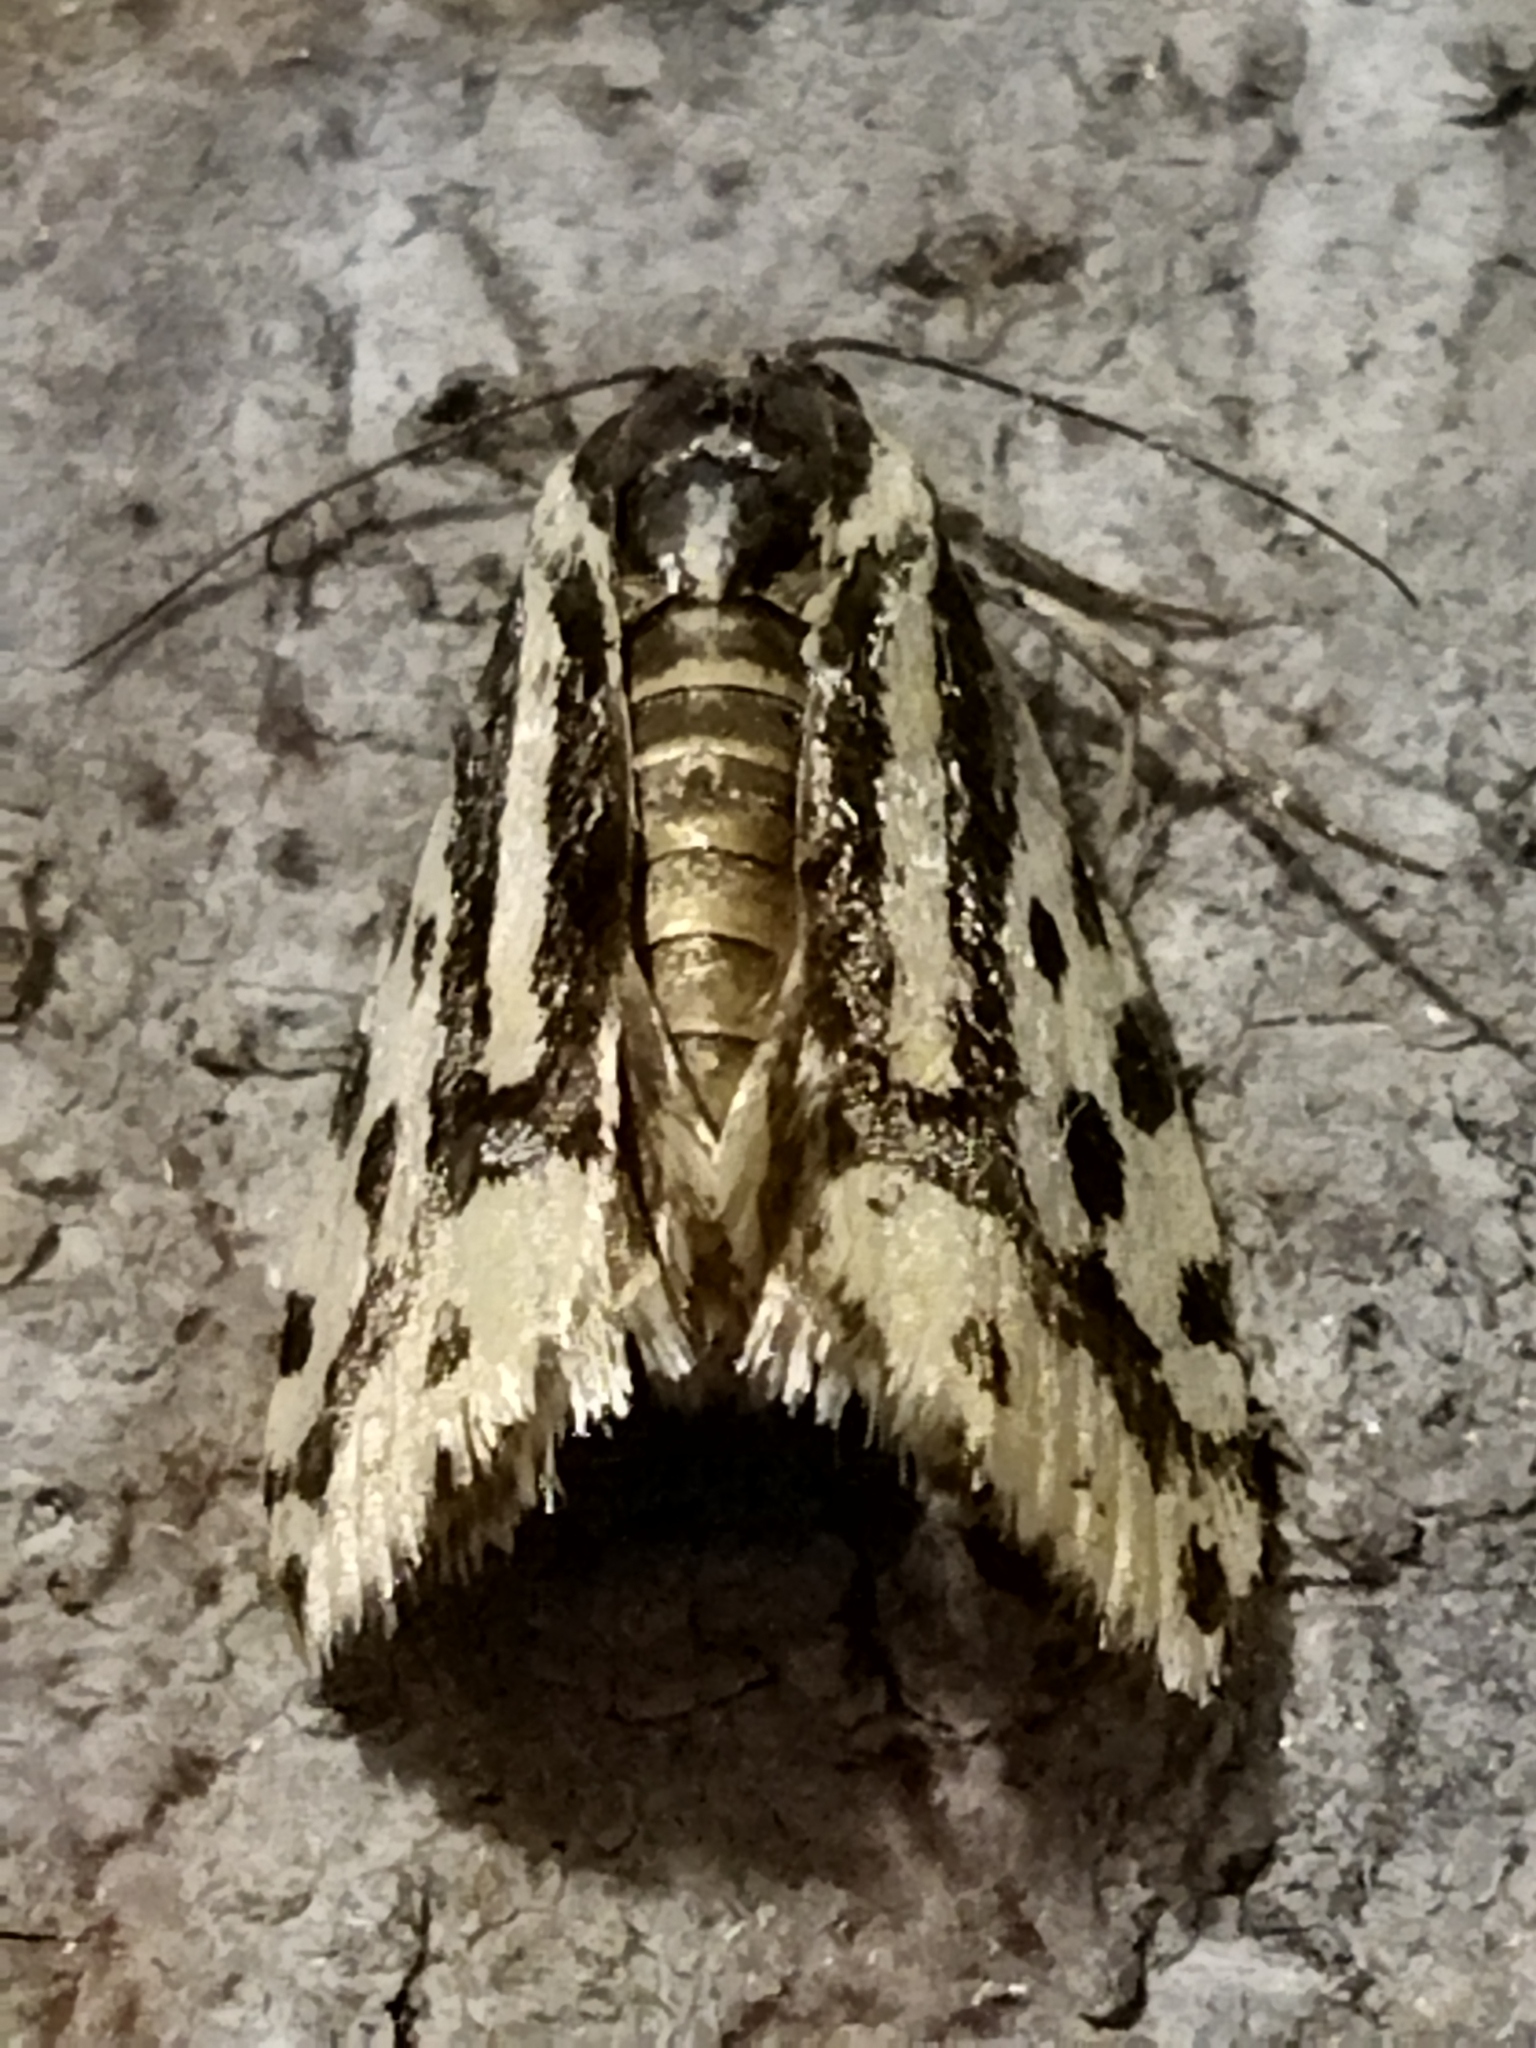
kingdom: Animalia
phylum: Arthropoda
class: Insecta
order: Lepidoptera
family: Noctuidae
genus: Acontia
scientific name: Acontia trabealis
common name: Spotted sulphur
